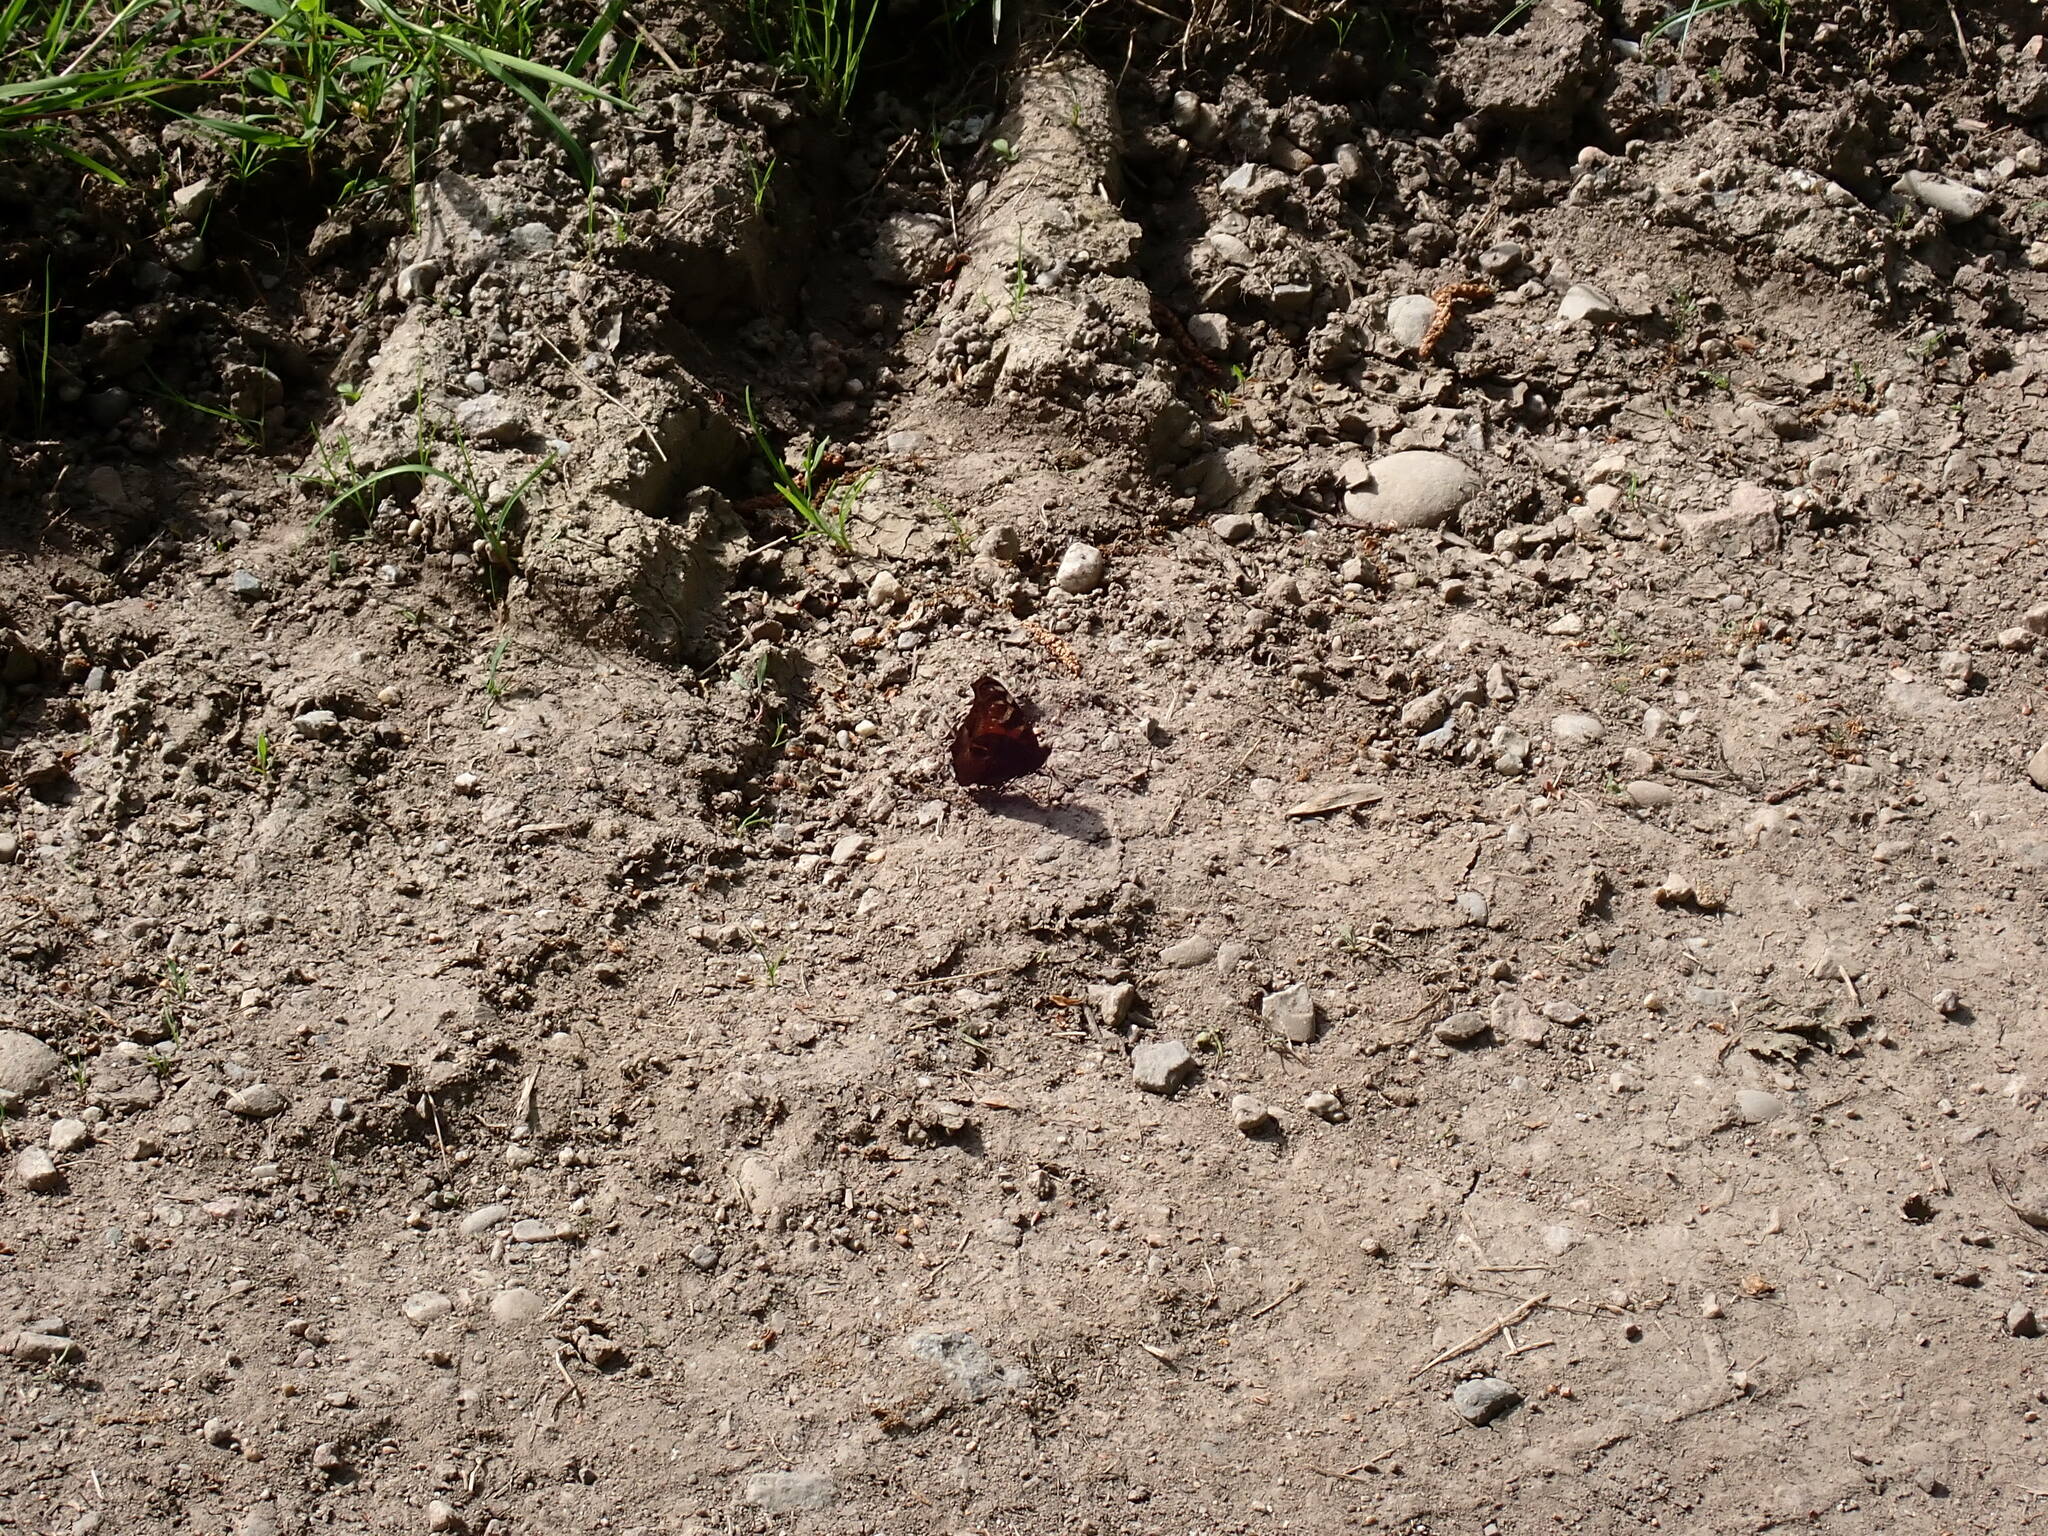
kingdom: Animalia
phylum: Arthropoda
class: Insecta
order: Lepidoptera
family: Nymphalidae
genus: Aglais
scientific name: Aglais io
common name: Peacock
